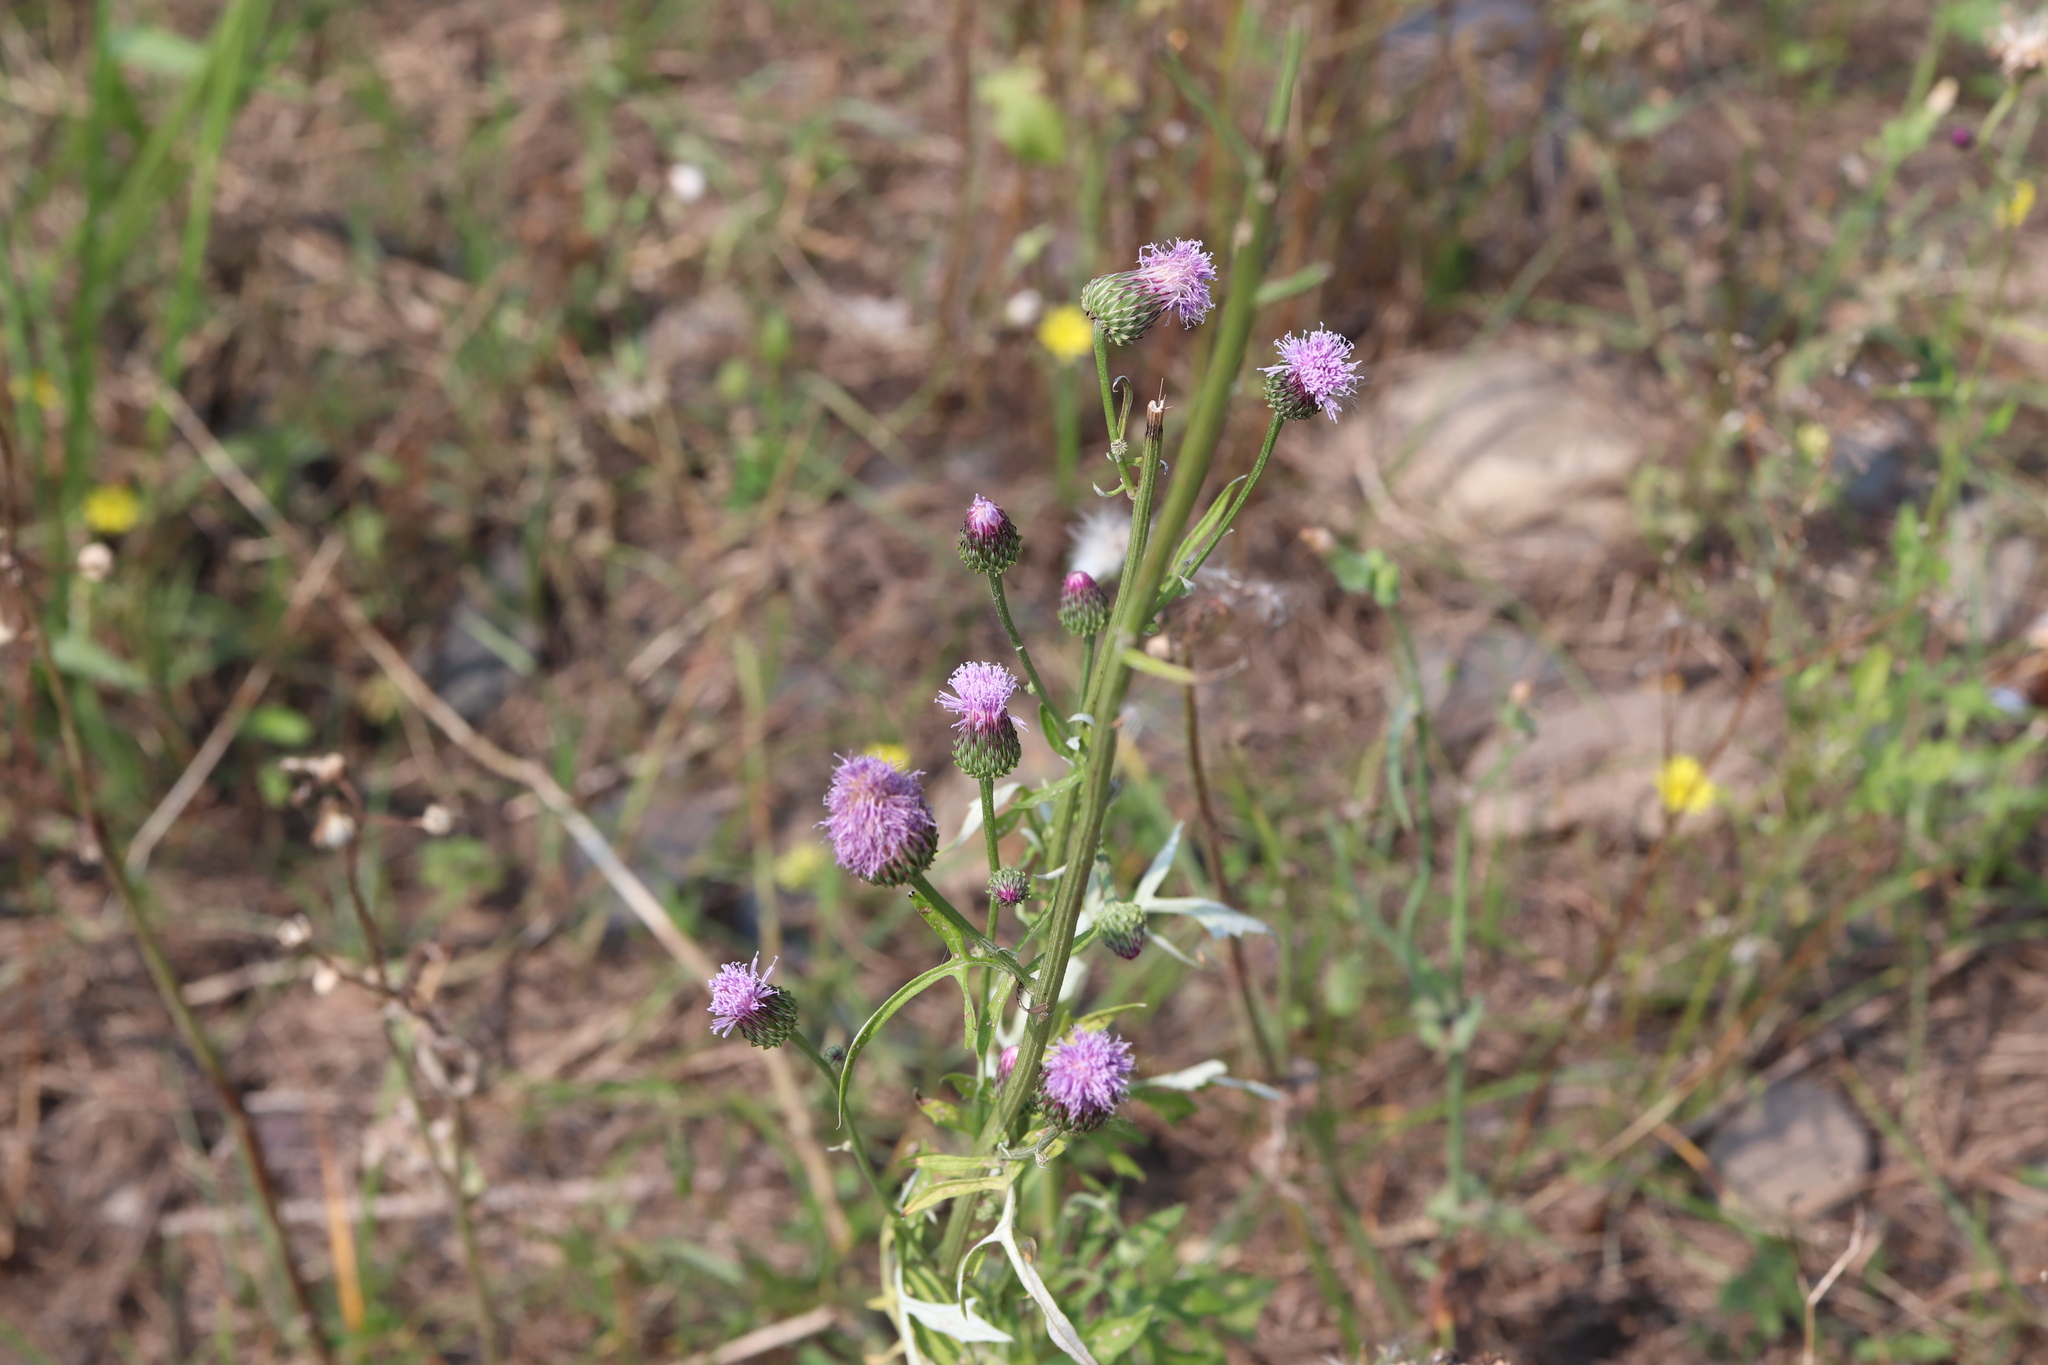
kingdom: Plantae
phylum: Tracheophyta
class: Magnoliopsida
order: Asterales
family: Asteraceae
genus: Saussurea
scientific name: Saussurea lyrata
